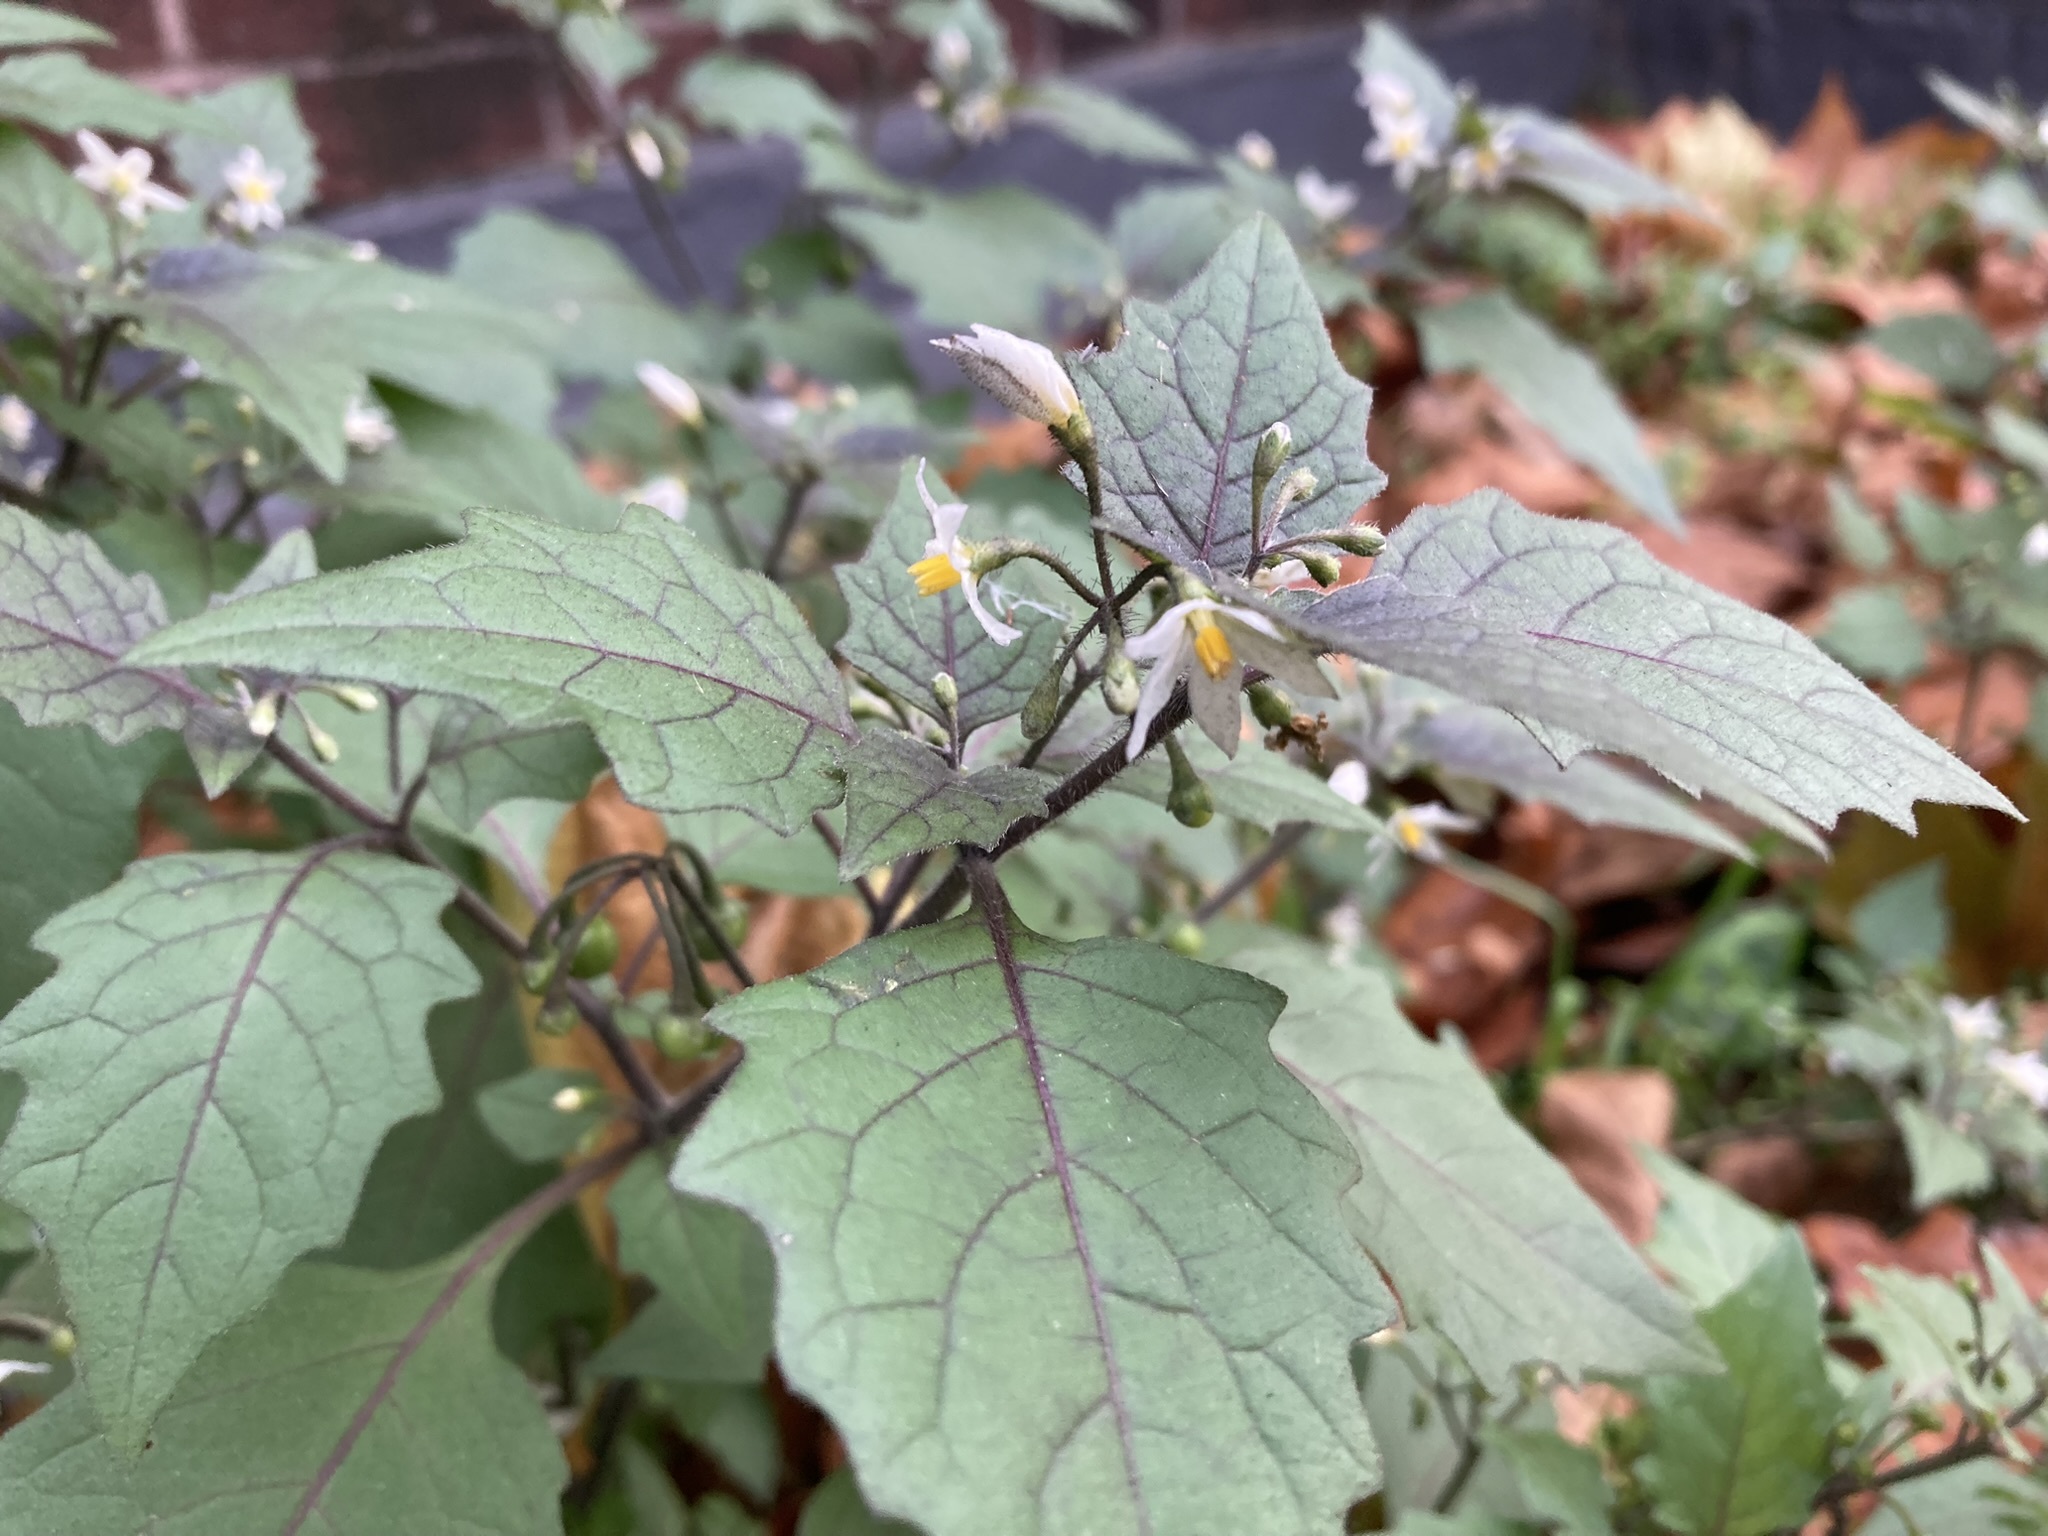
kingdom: Plantae
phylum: Tracheophyta
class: Magnoliopsida
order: Solanales
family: Solanaceae
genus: Solanum
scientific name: Solanum nigrum
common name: Black nightshade
